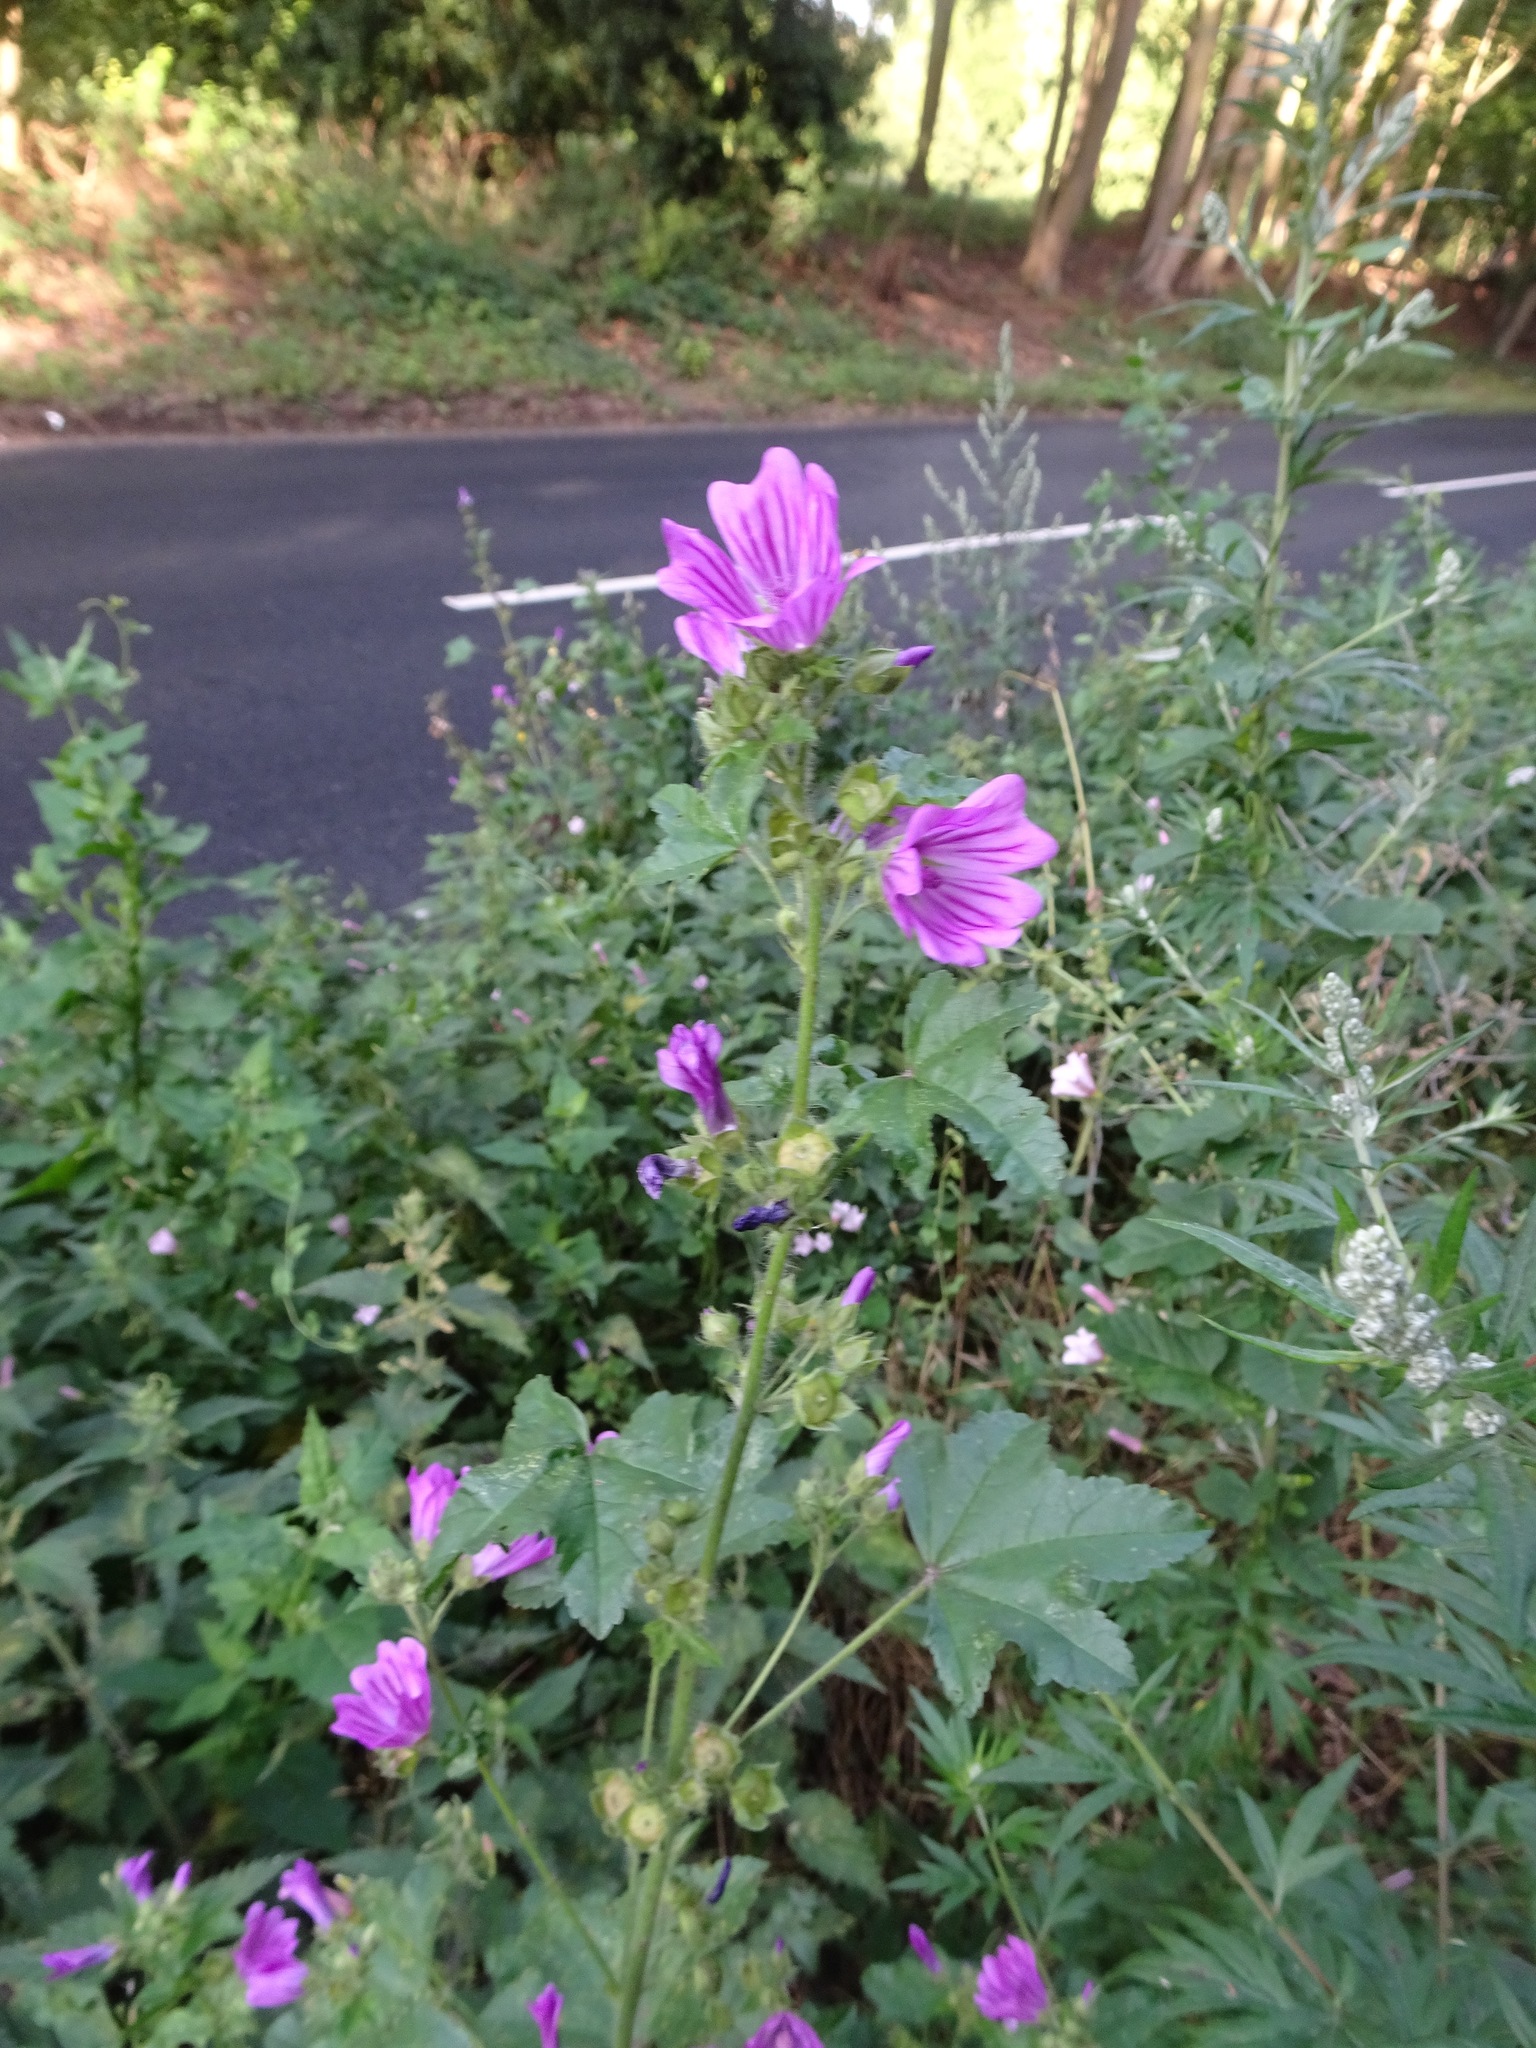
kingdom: Plantae
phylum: Tracheophyta
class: Magnoliopsida
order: Malvales
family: Malvaceae
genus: Malva
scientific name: Malva sylvestris
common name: Common mallow
